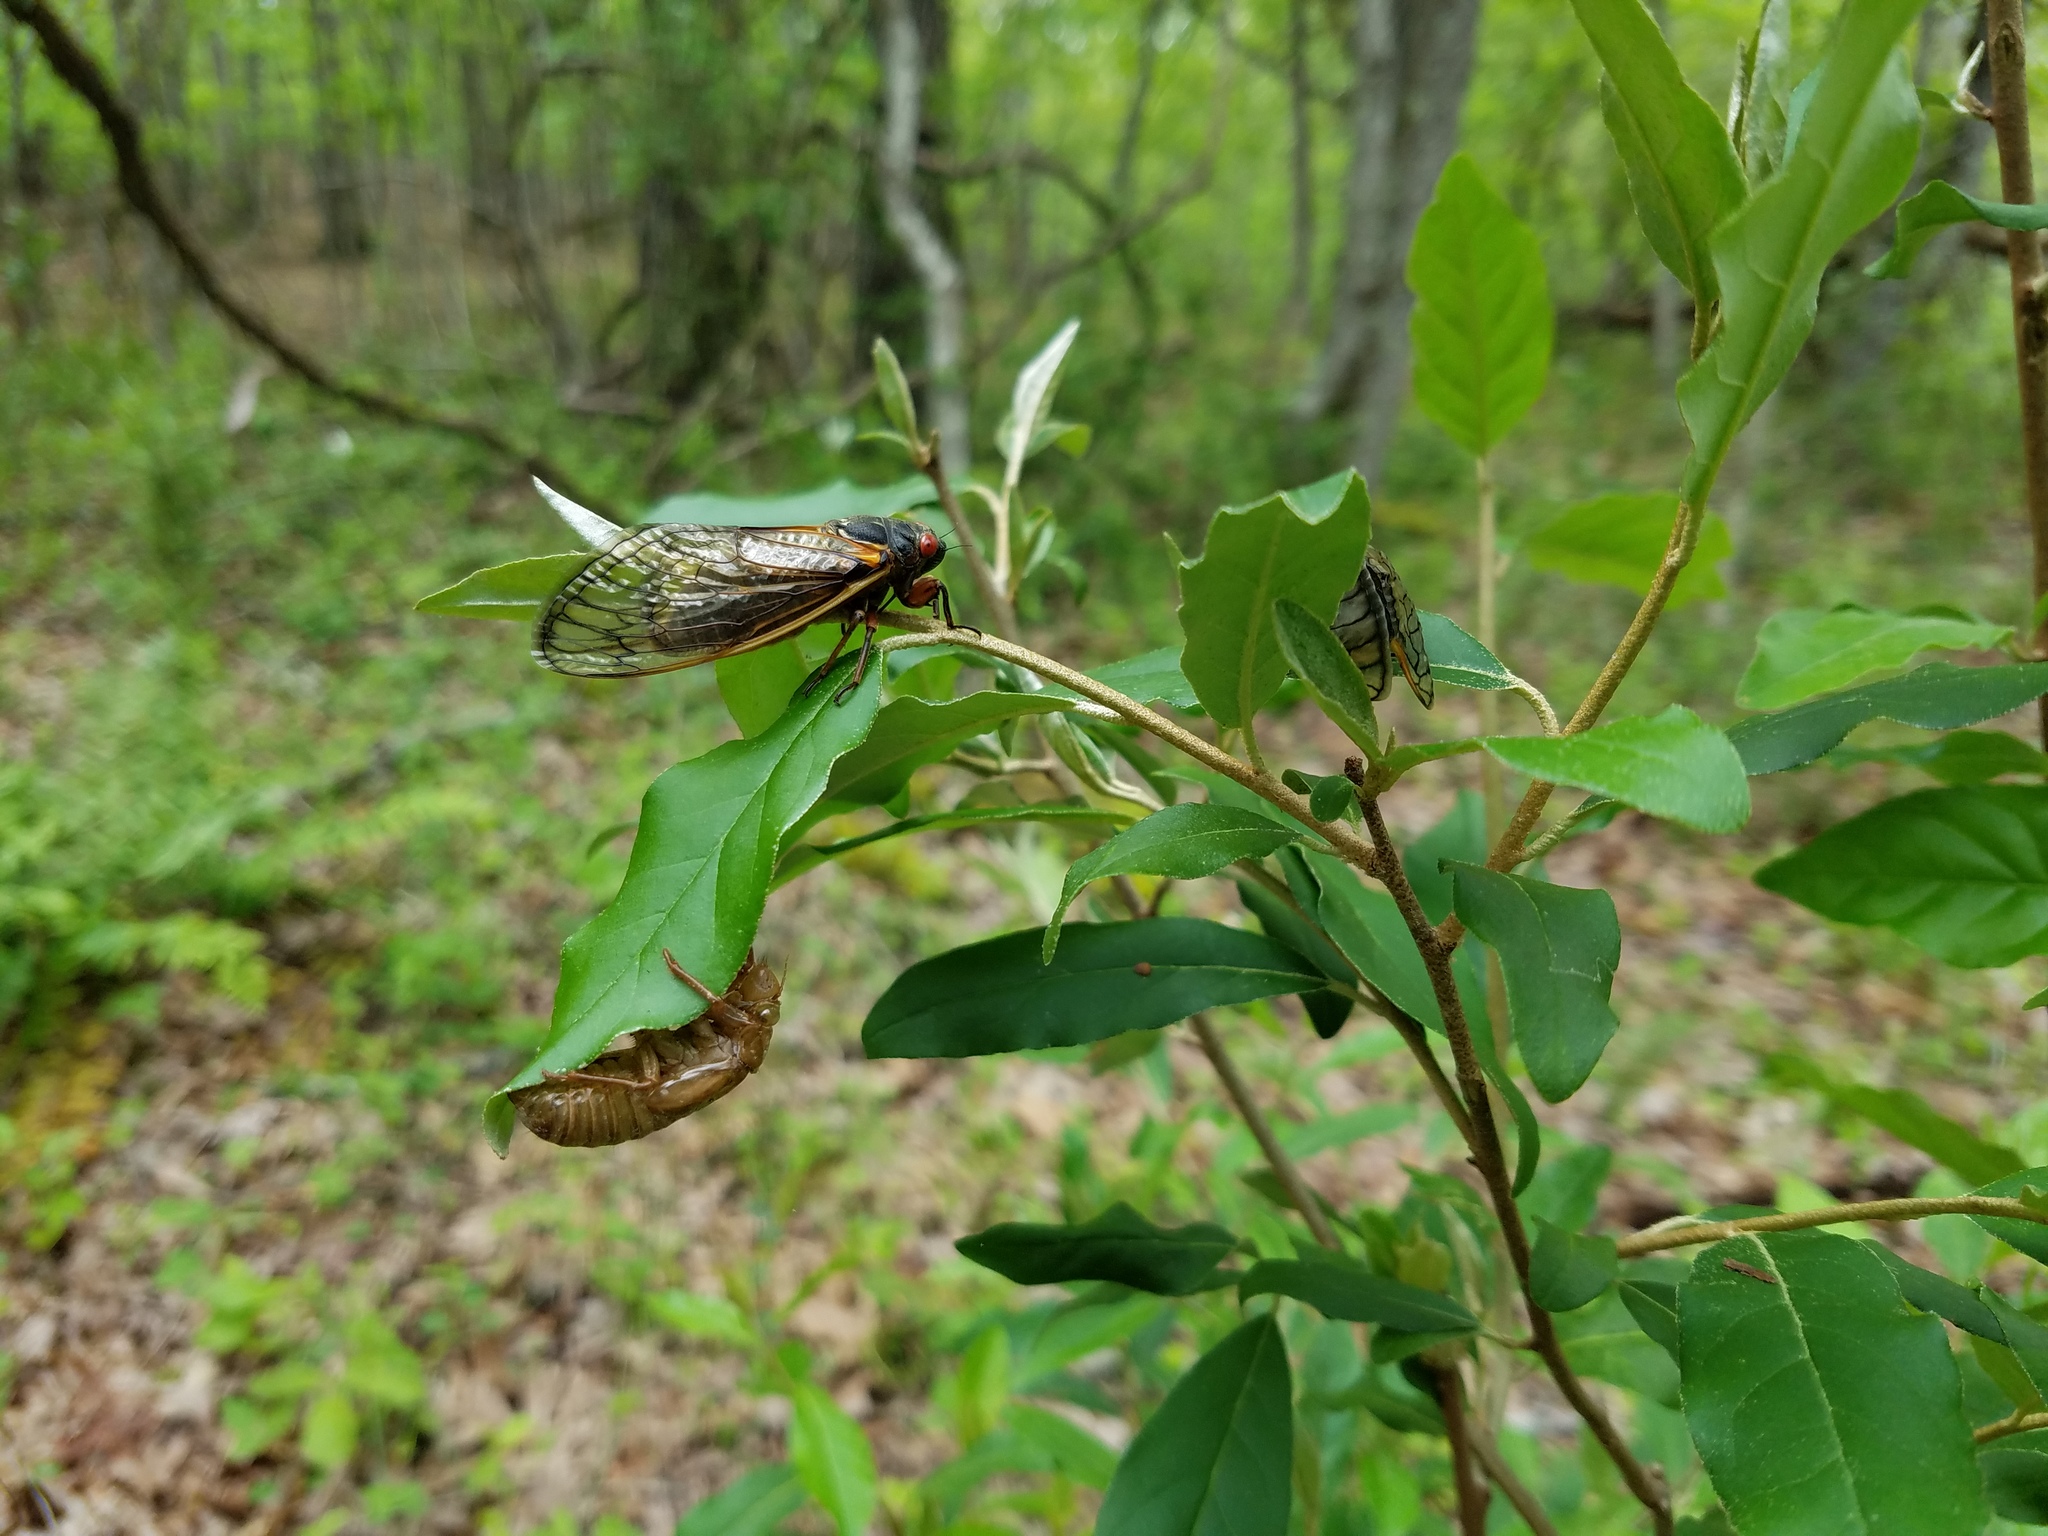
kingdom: Animalia
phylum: Arthropoda
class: Insecta
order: Hemiptera
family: Cicadidae
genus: Magicicada
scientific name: Magicicada septendecim
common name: Periodical cicada
